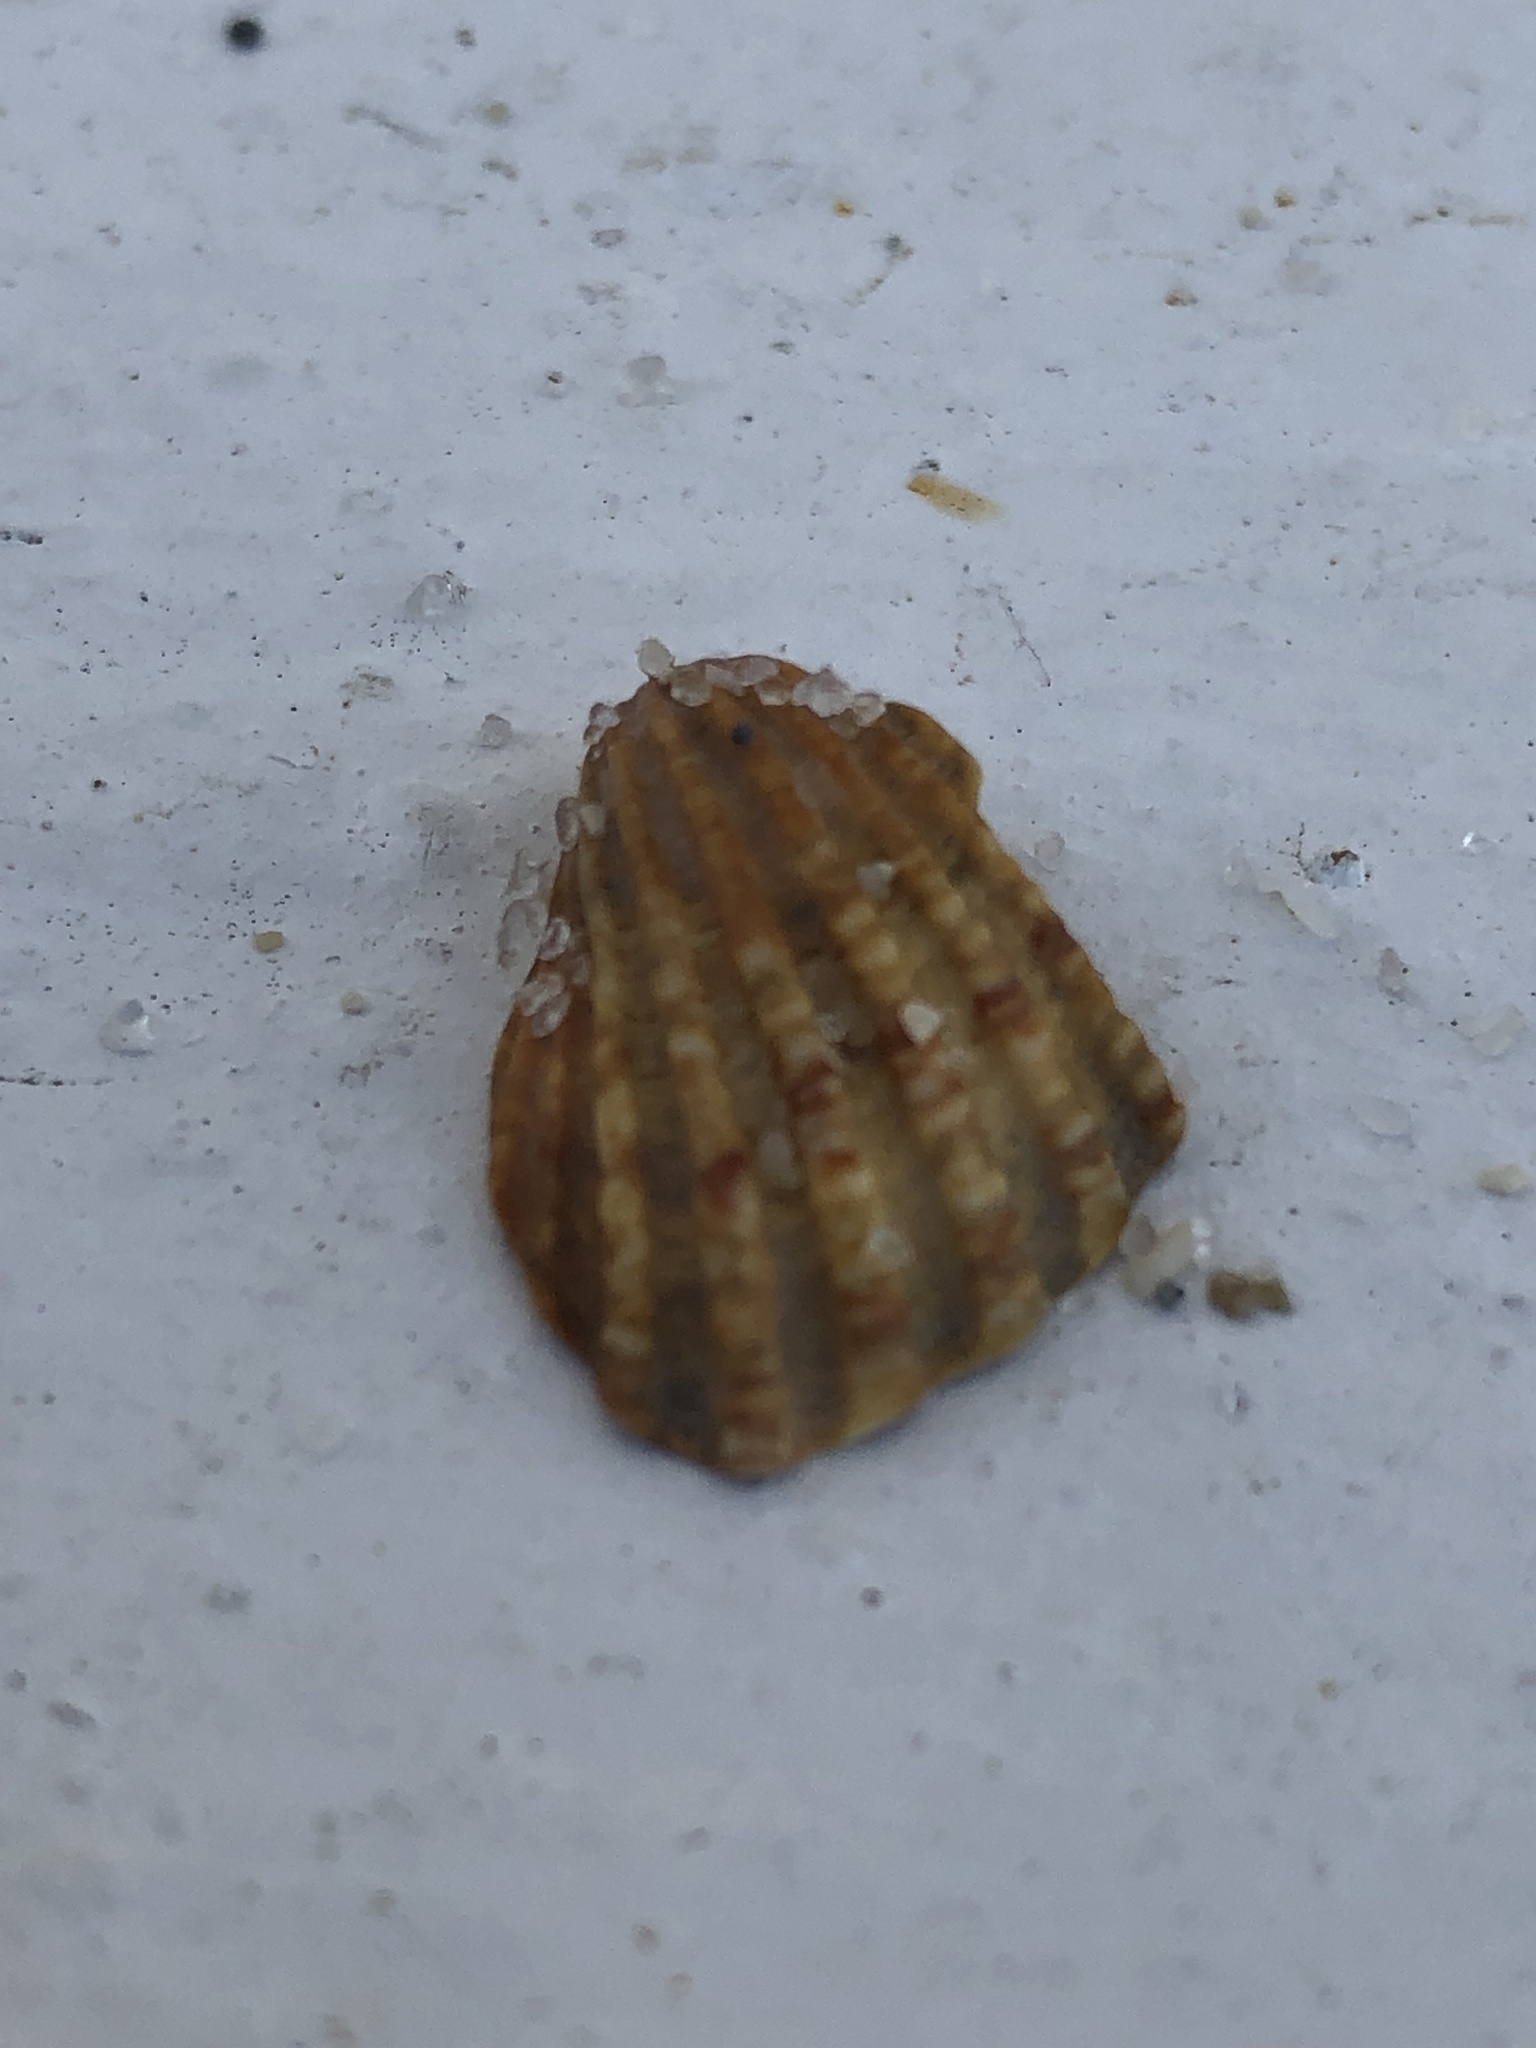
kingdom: Animalia
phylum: Mollusca
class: Bivalvia
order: Carditida
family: Carditidae
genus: Cardites
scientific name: Cardites floridanus
